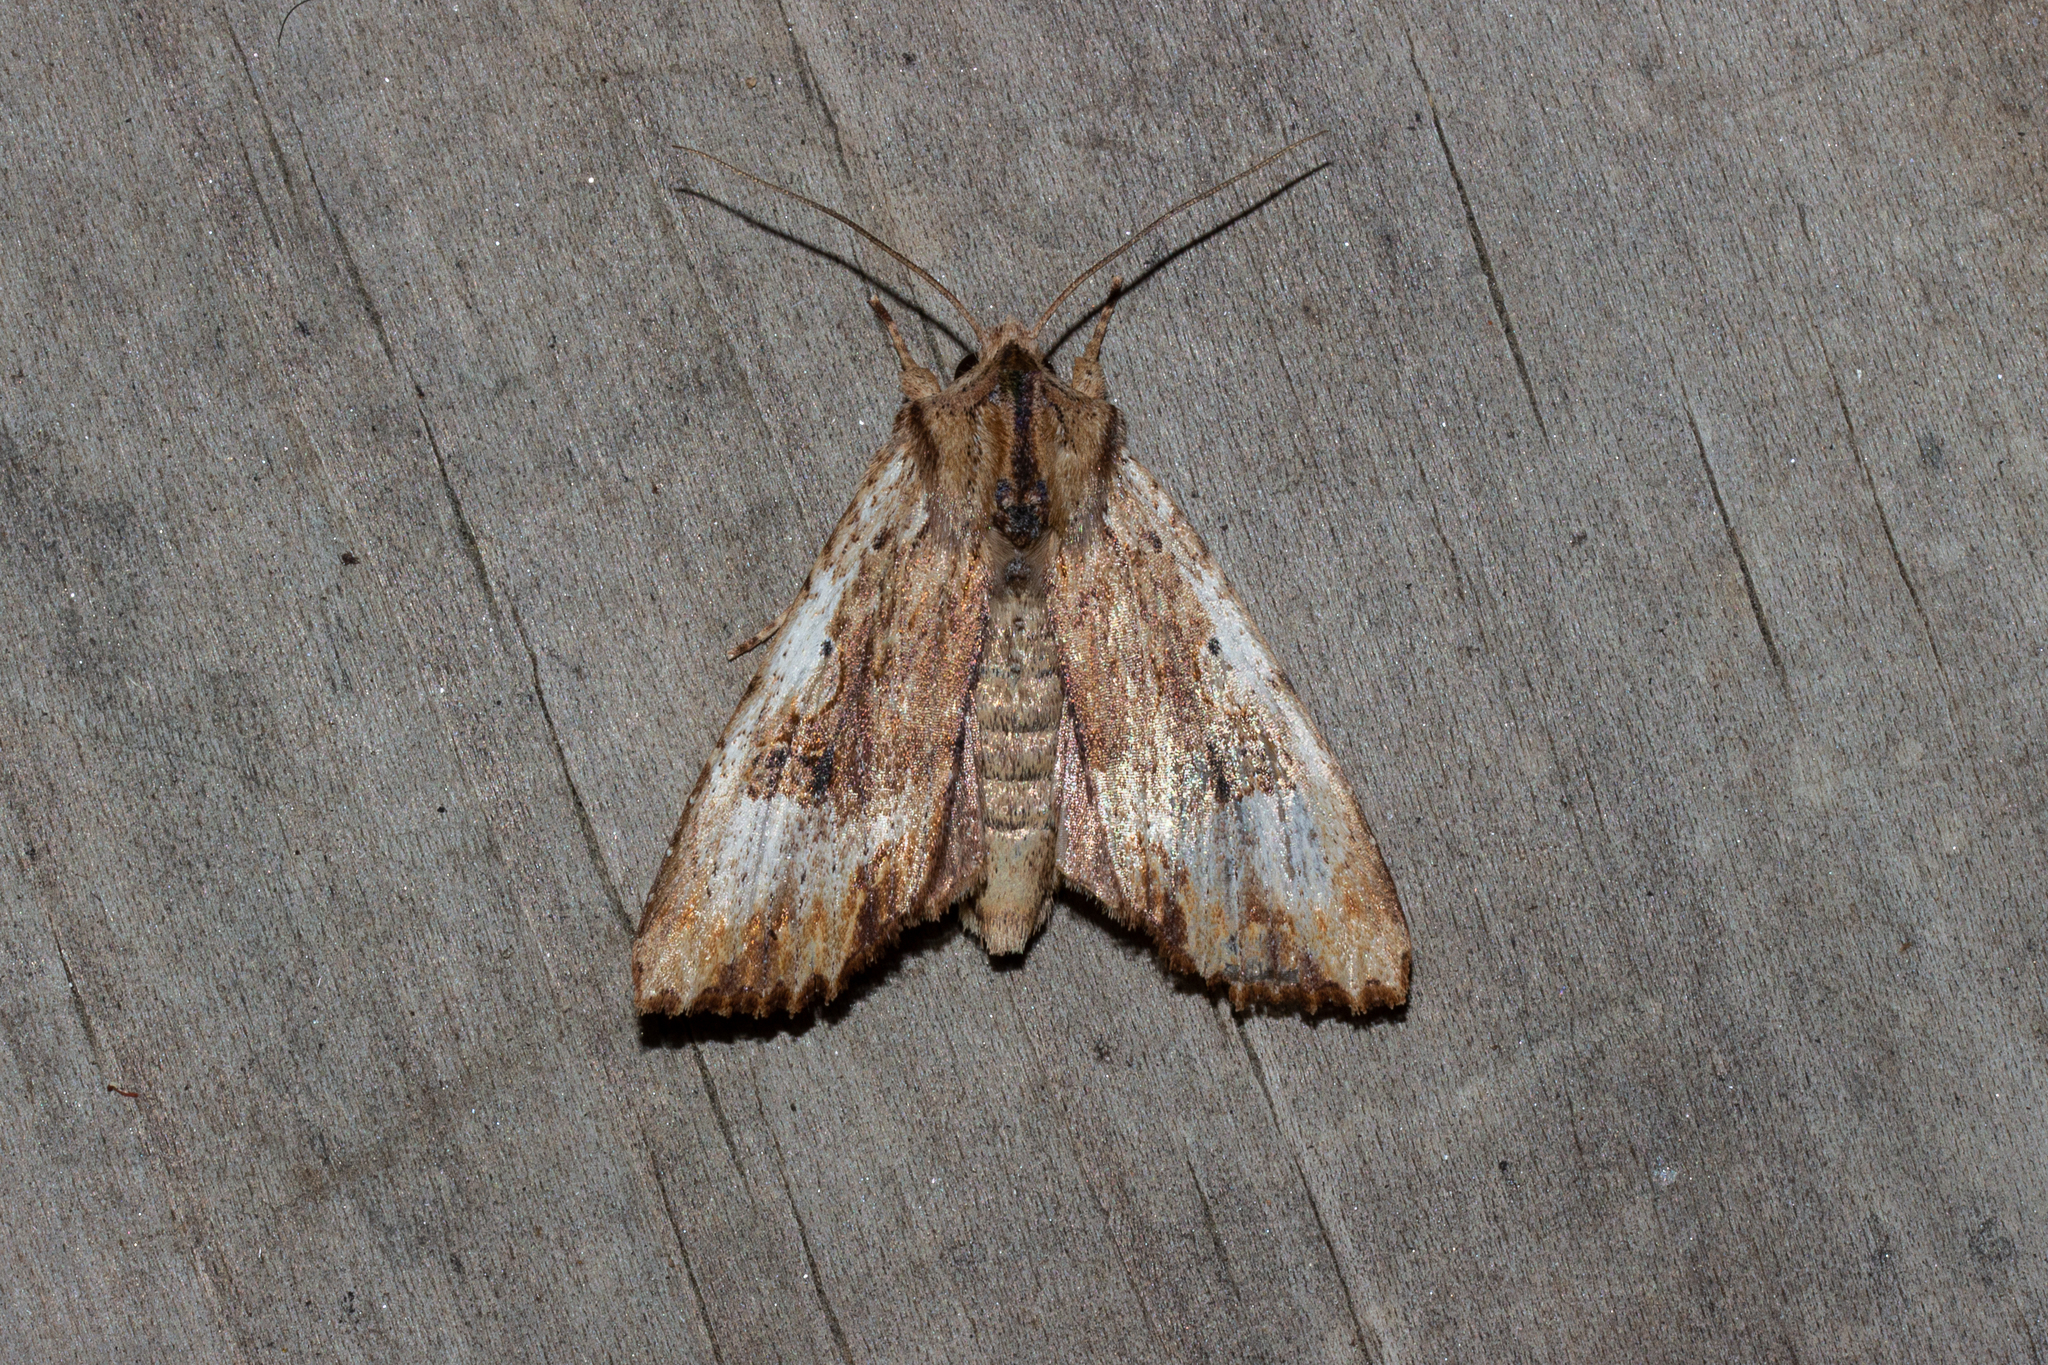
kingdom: Animalia
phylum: Arthropoda
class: Insecta
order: Lepidoptera
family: Noctuidae
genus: Ichneutica
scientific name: Ichneutica
